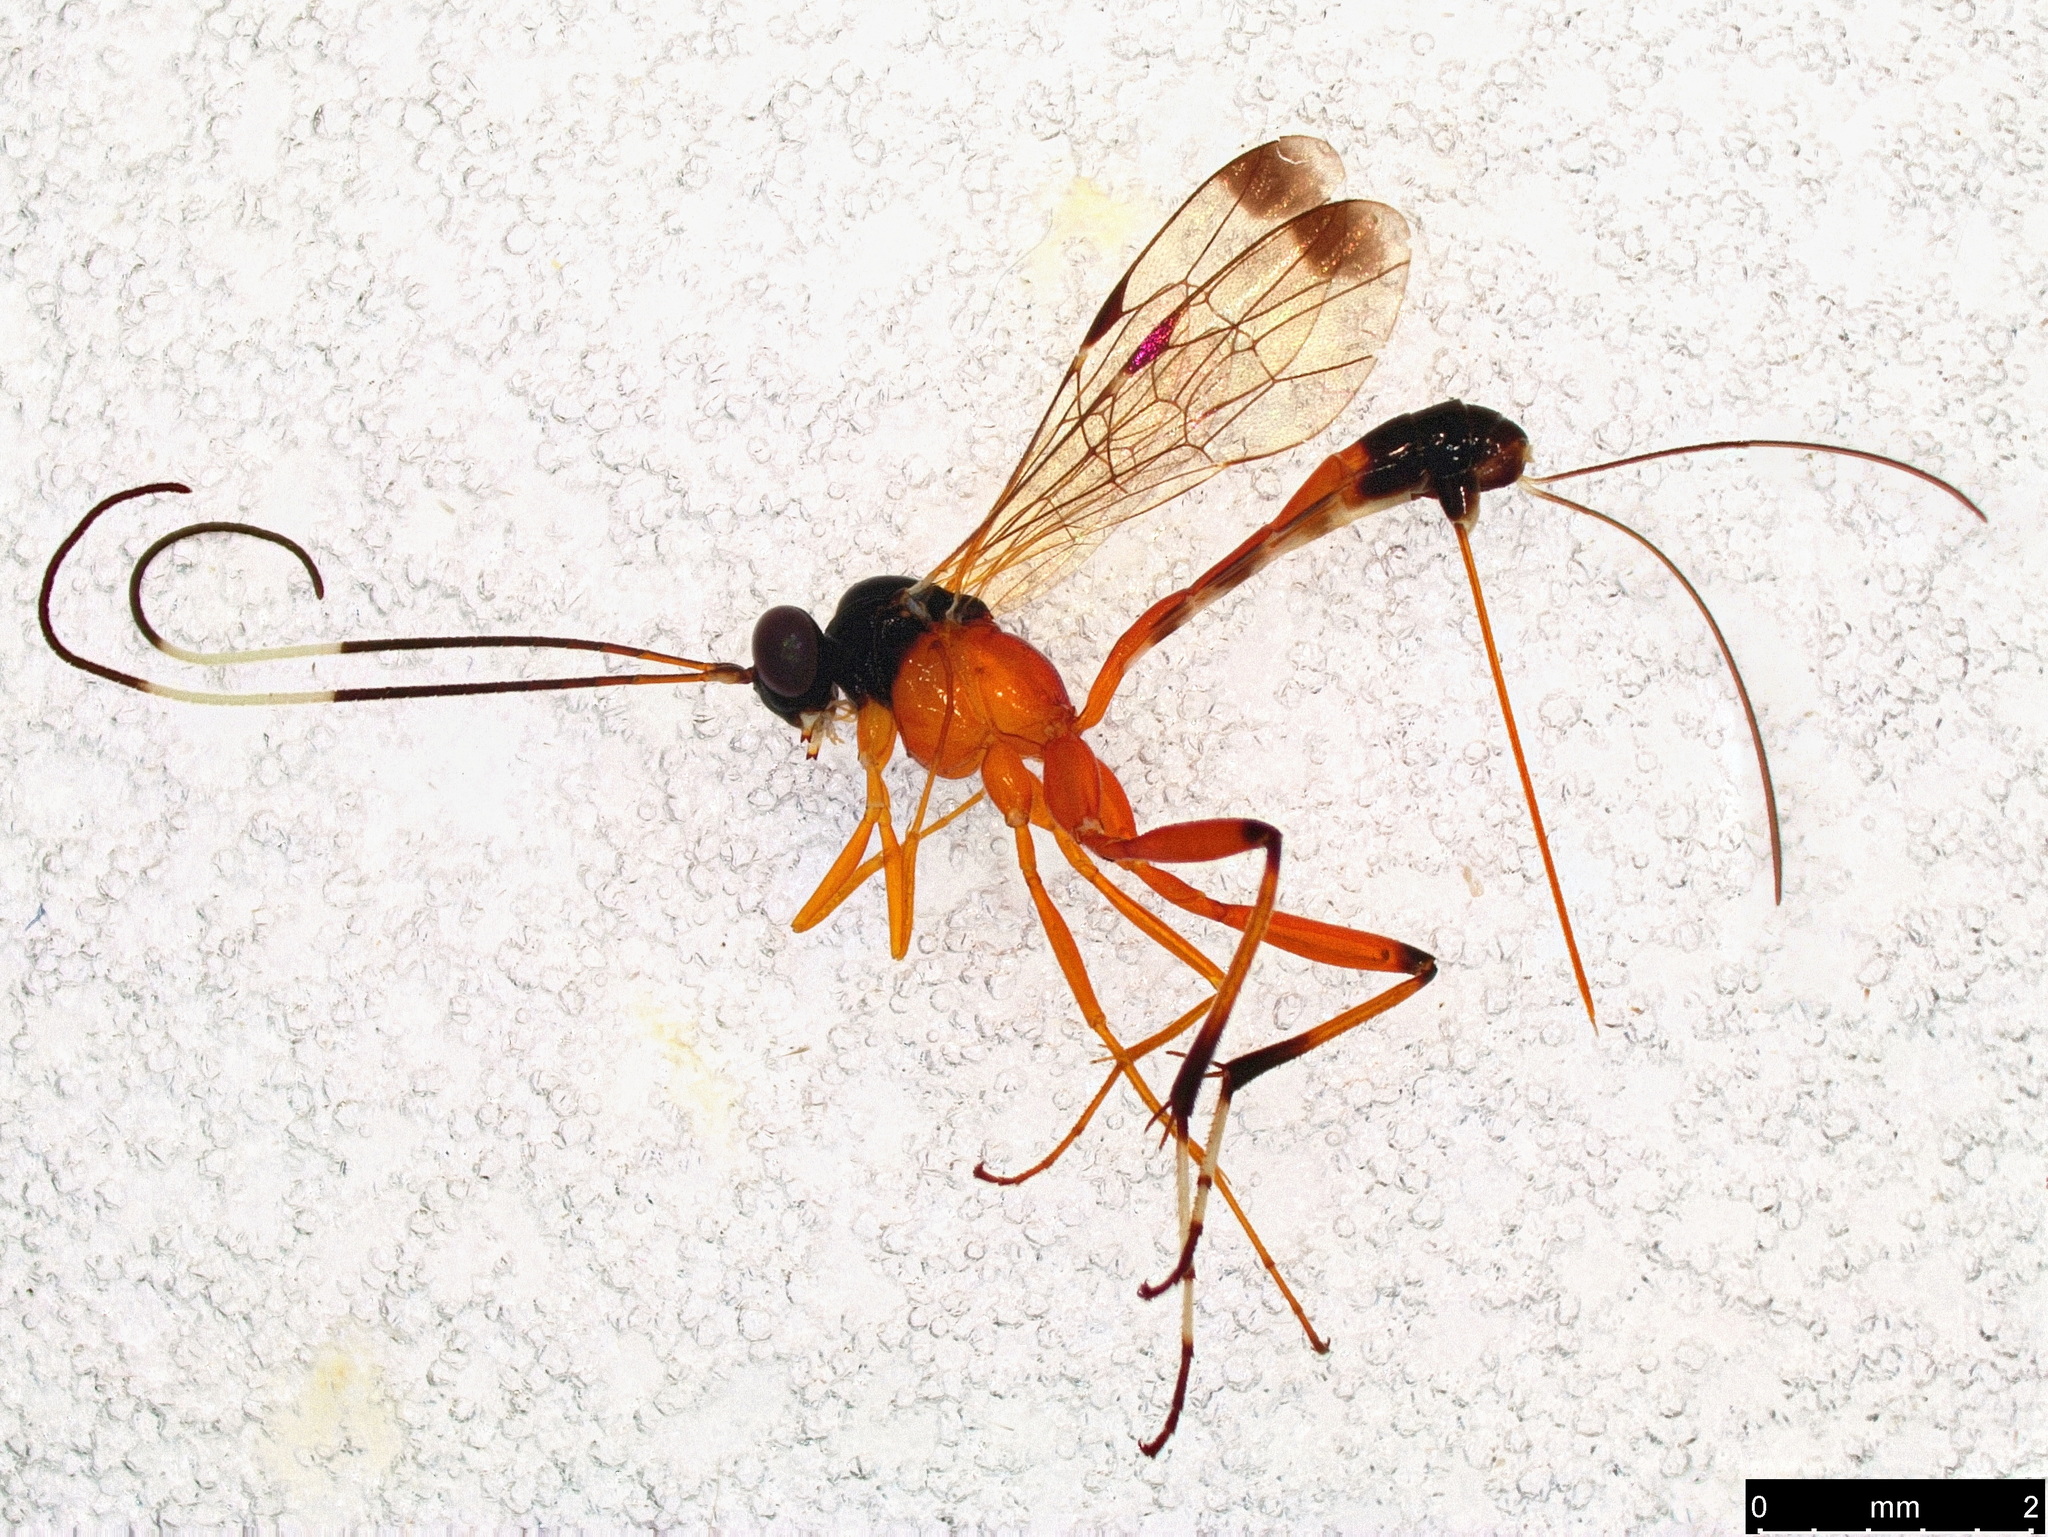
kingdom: Animalia
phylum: Arthropoda
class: Insecta
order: Hymenoptera
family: Ichneumonidae
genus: Leptobatopsis
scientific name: Leptobatopsis mesominiata
